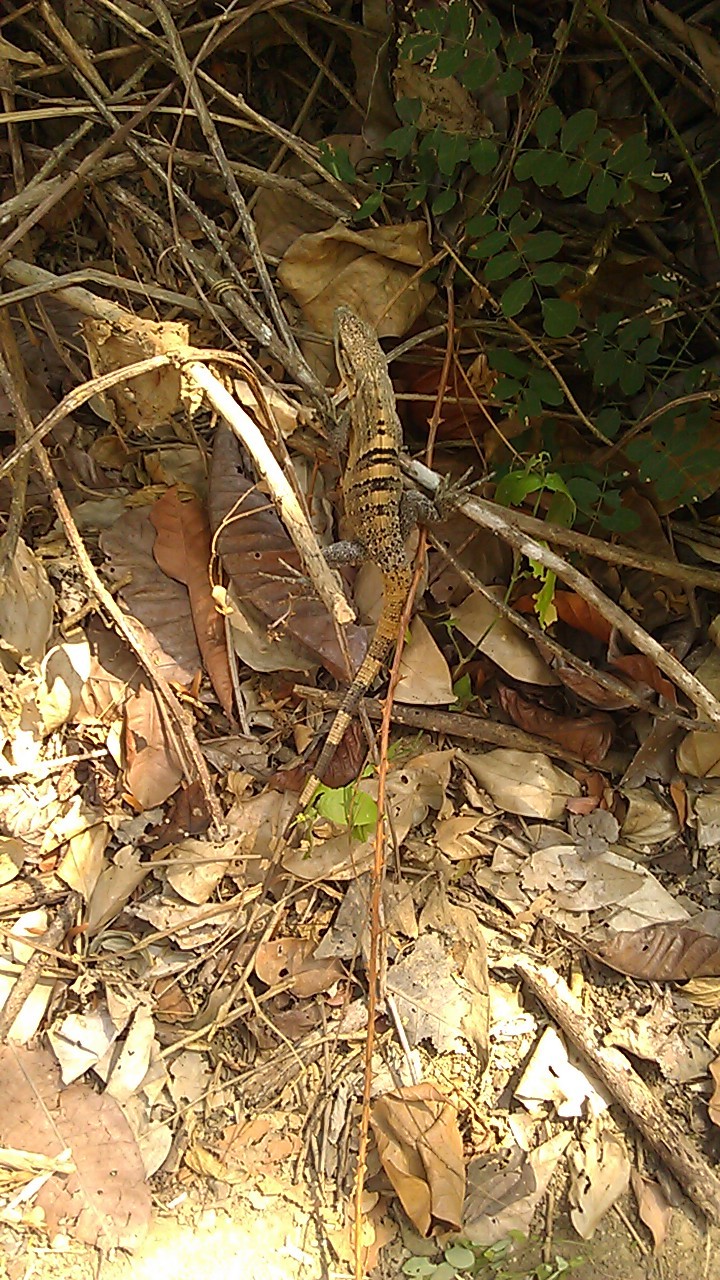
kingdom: Animalia
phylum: Chordata
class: Squamata
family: Iguanidae
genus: Ctenosaura
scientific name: Ctenosaura similis
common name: Black spiny-tailed iguana
